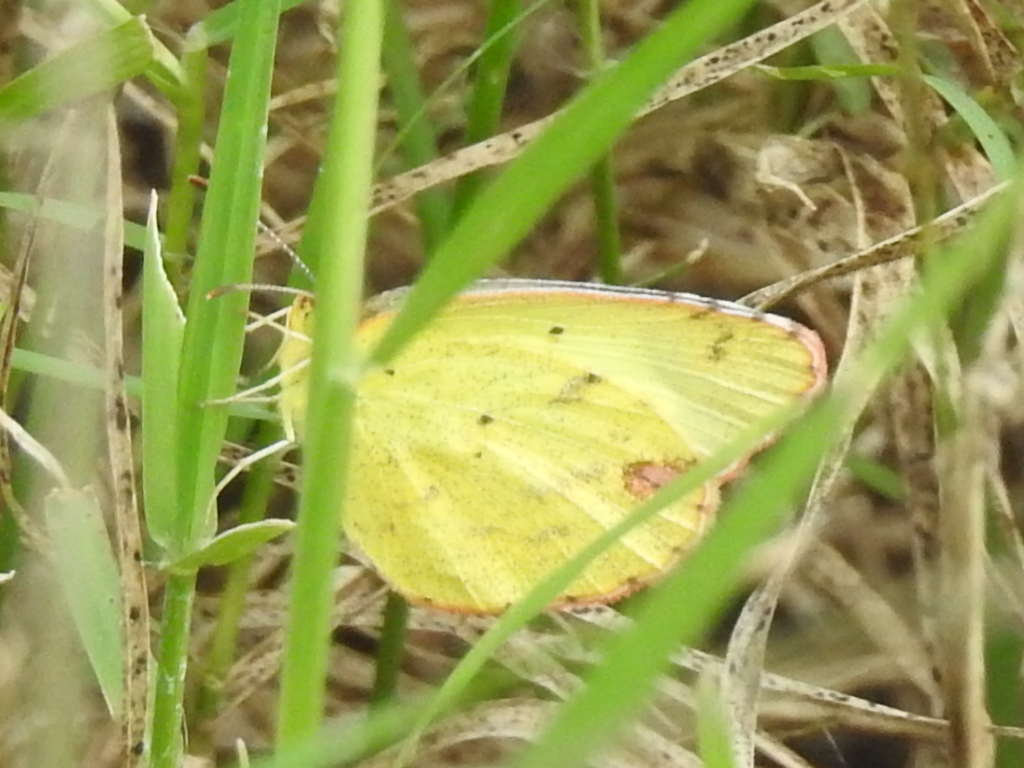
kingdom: Animalia
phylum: Arthropoda
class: Insecta
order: Lepidoptera
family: Pieridae
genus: Pyrisitia
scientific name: Pyrisitia lisa
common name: Little yellow
